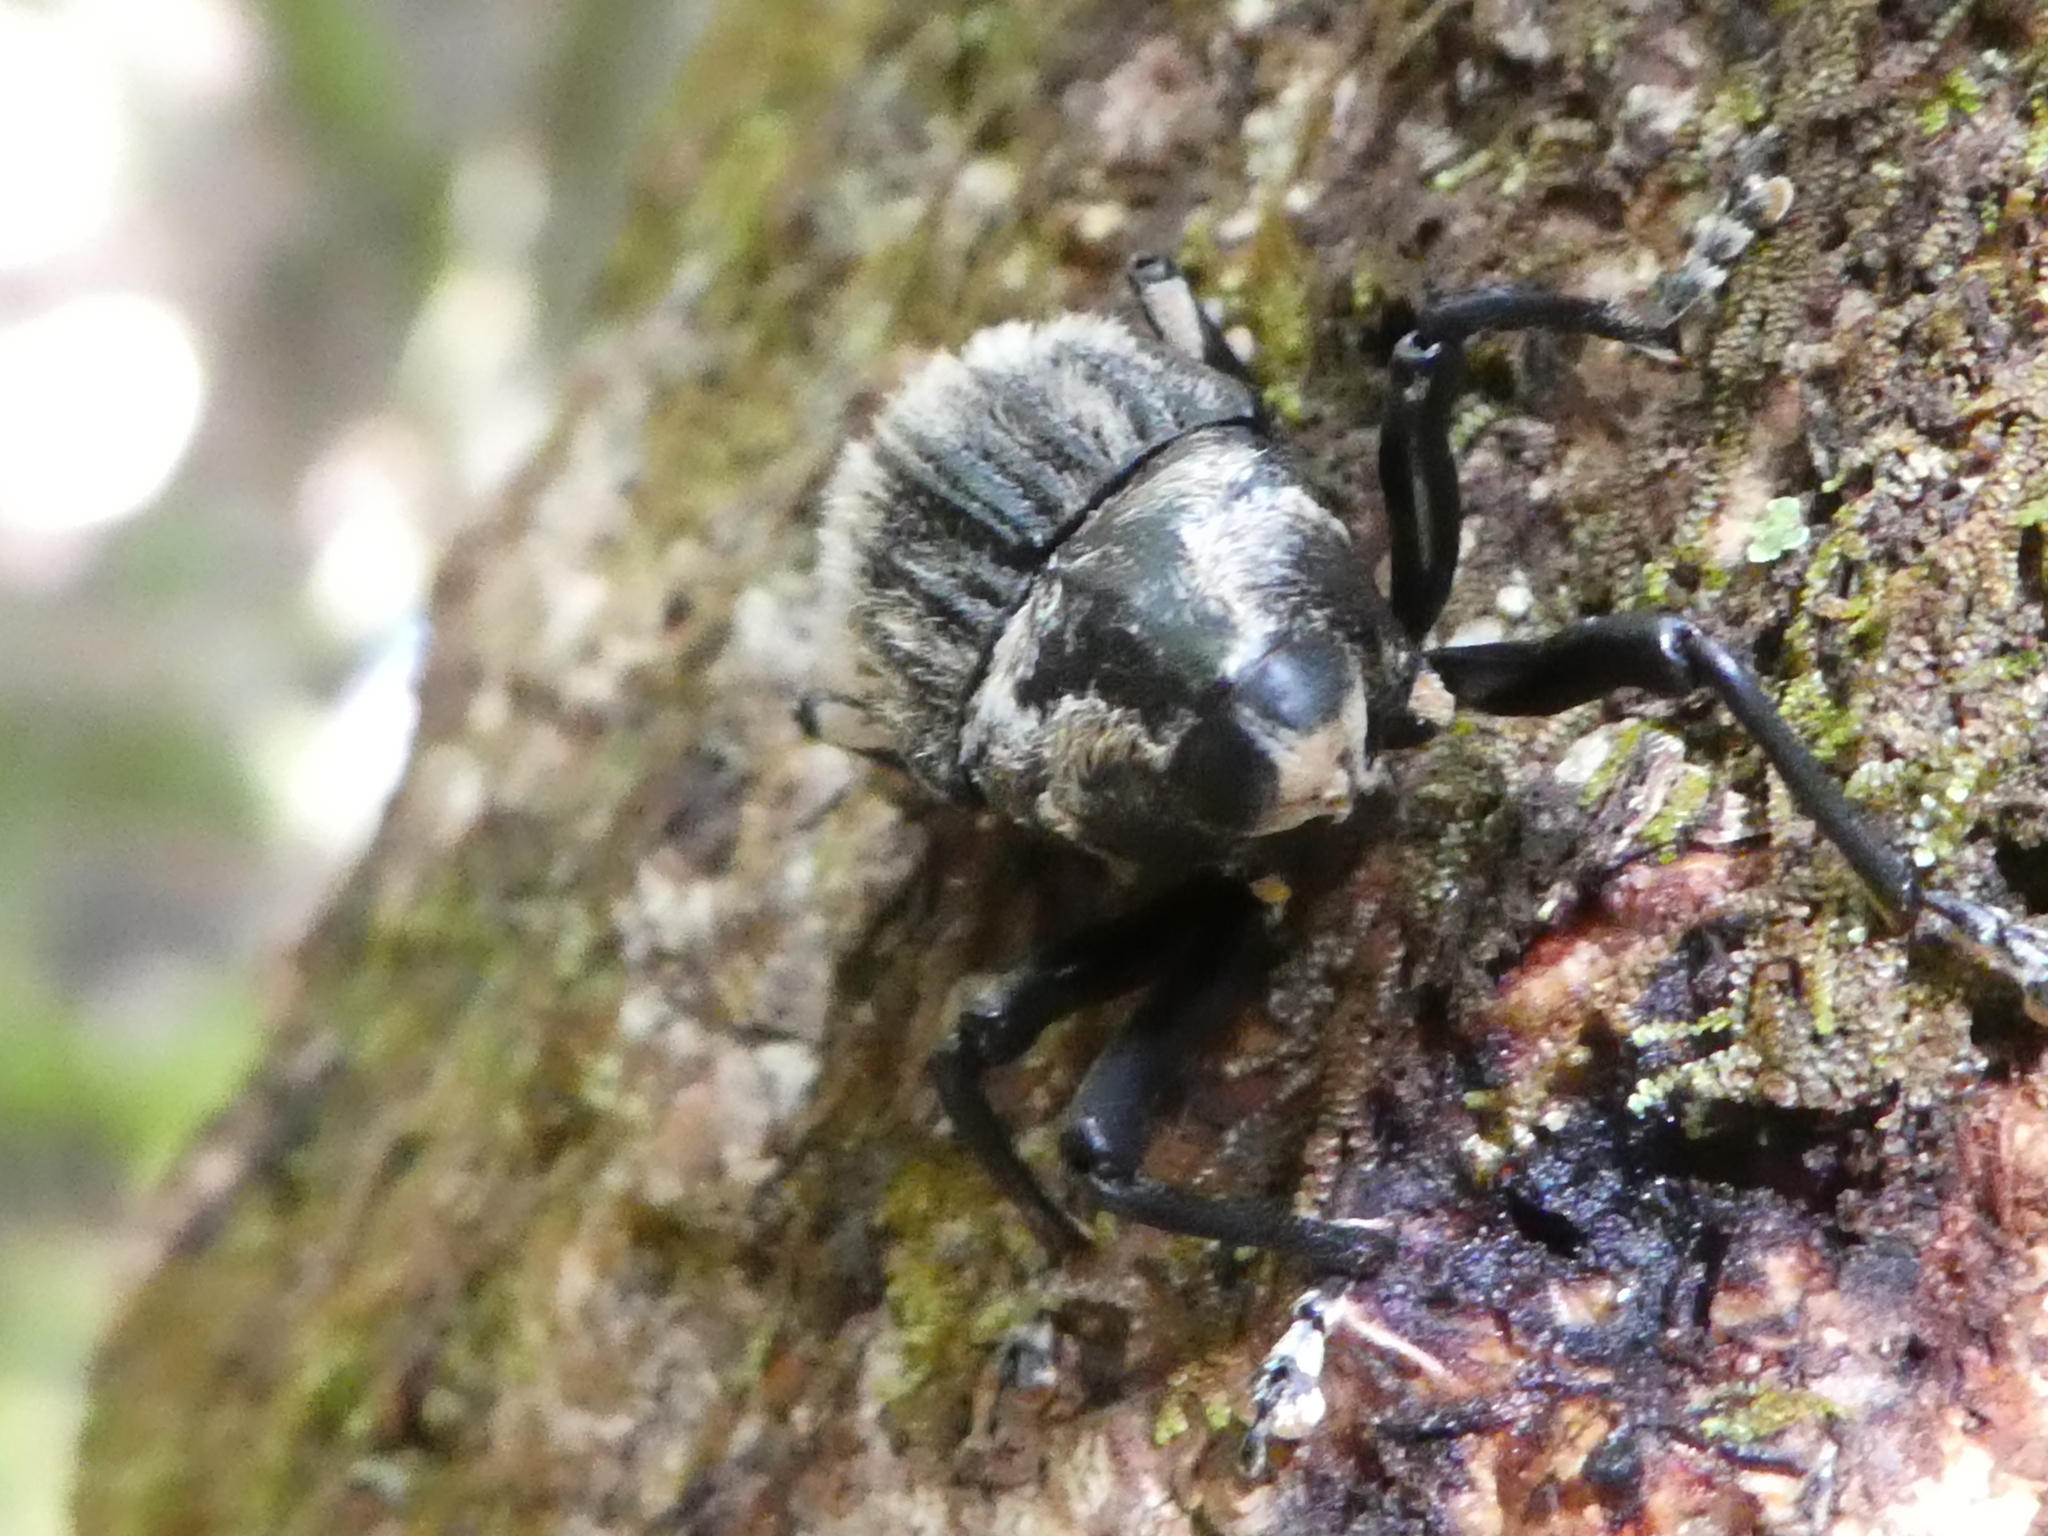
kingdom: Animalia
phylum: Arthropoda
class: Insecta
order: Coleoptera
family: Curculionidae
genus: Rhynchodes
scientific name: Rhynchodes ursus
